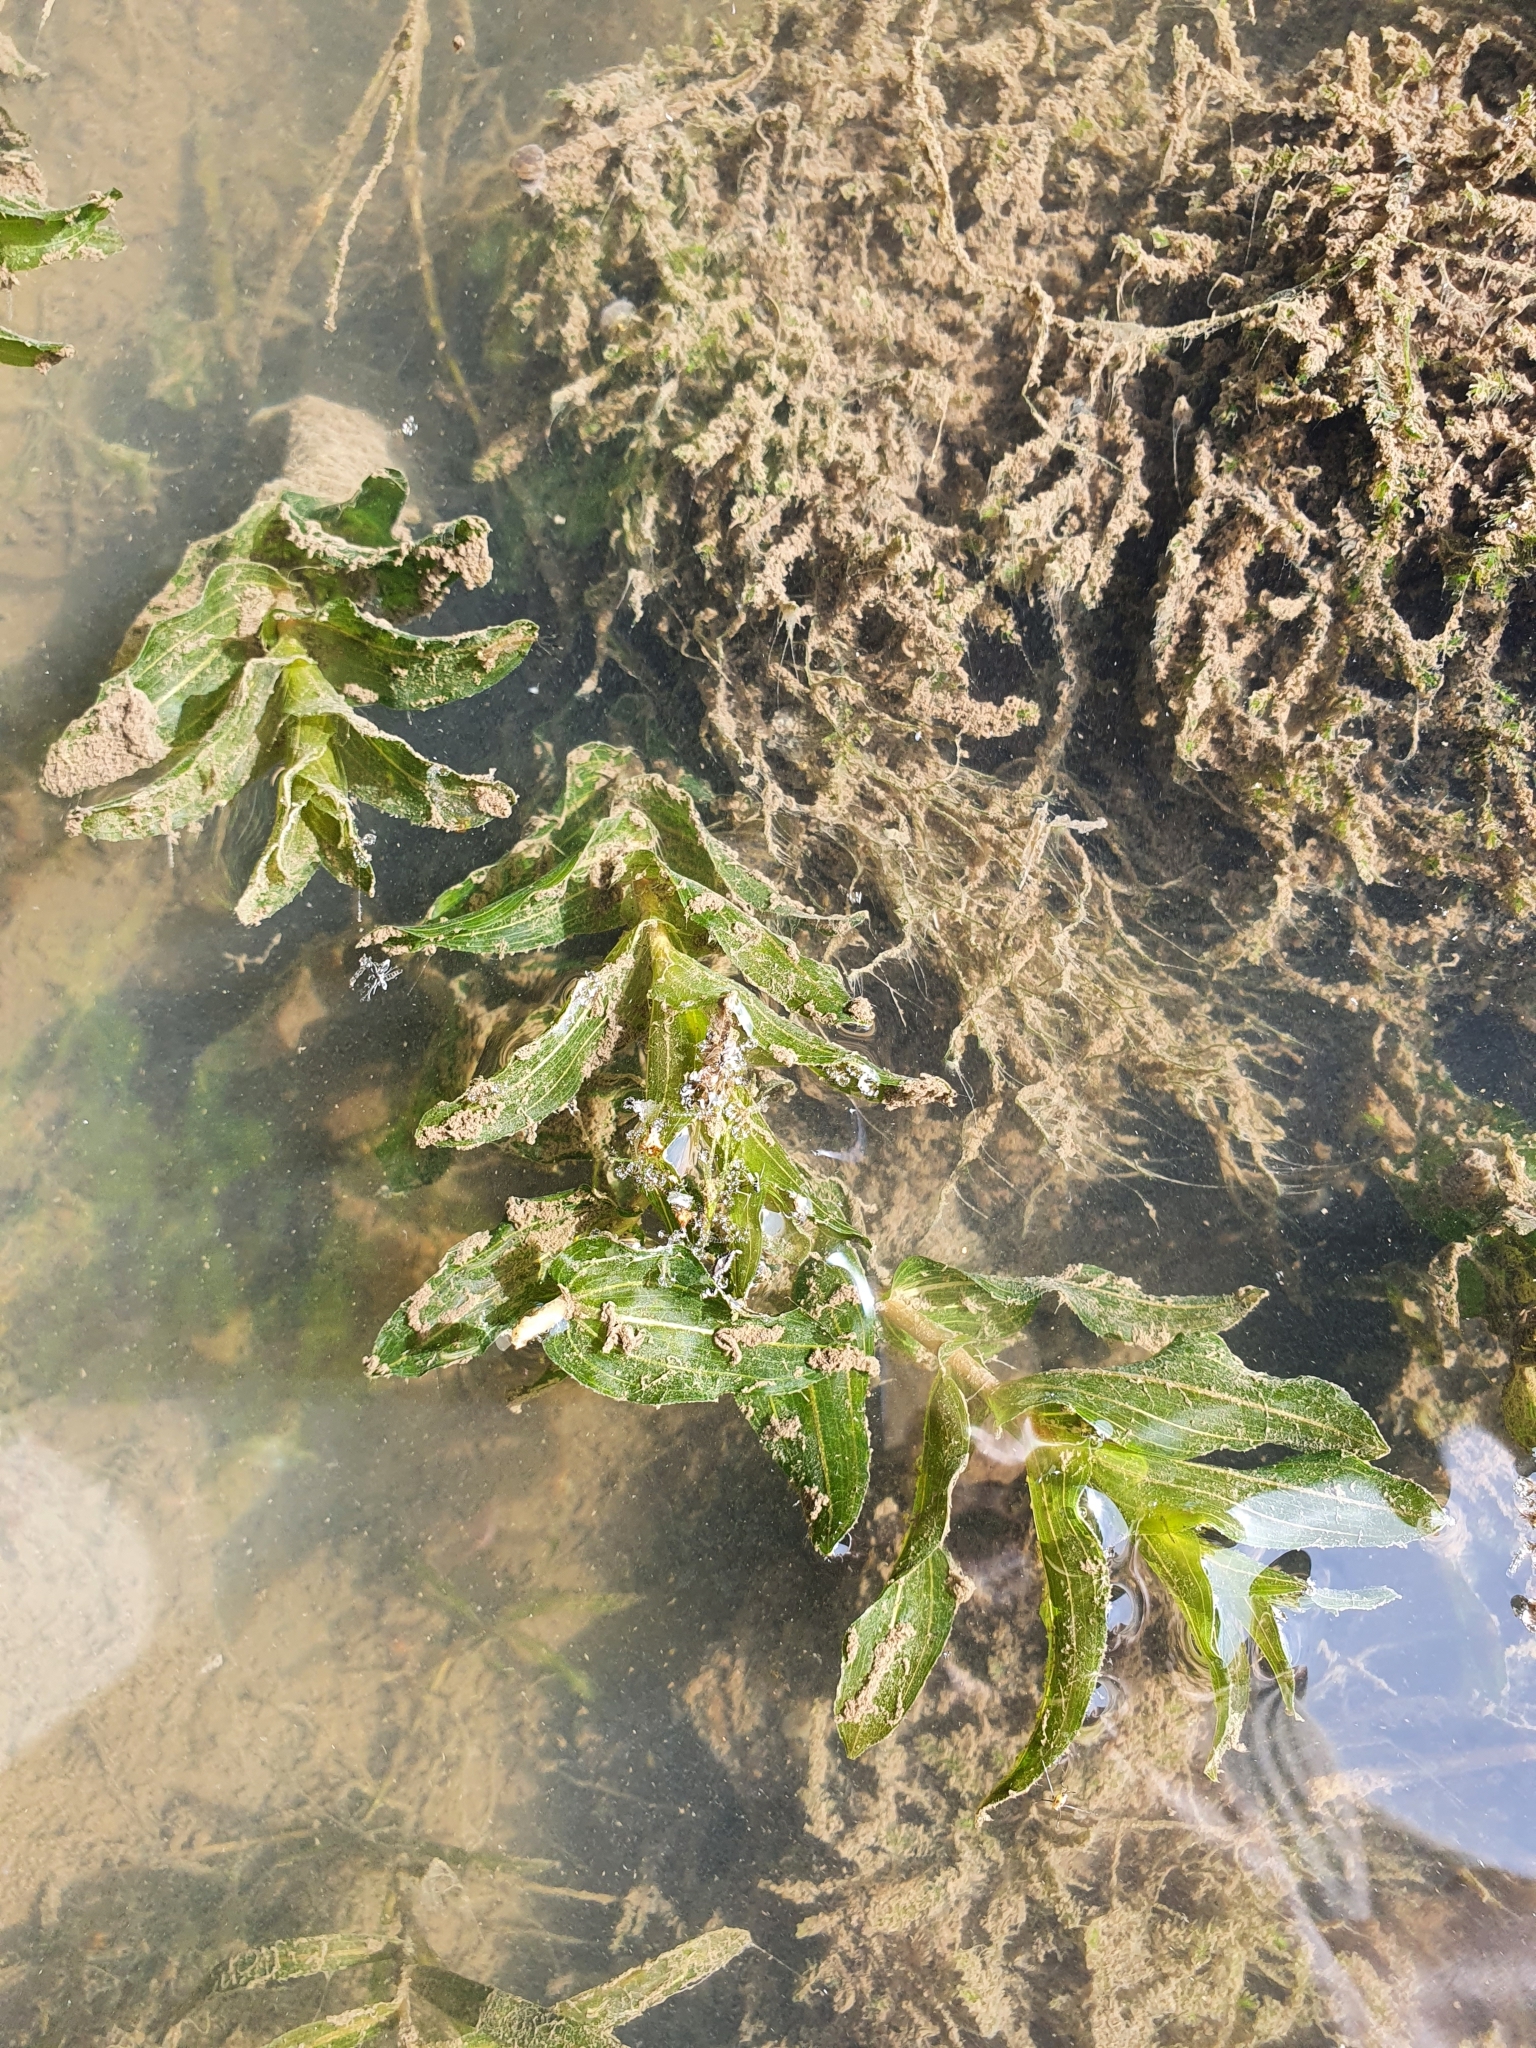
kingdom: Plantae
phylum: Tracheophyta
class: Liliopsida
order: Alismatales
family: Potamogetonaceae
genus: Potamogeton
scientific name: Potamogeton perfoliatus
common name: Perfoliate pondweed
